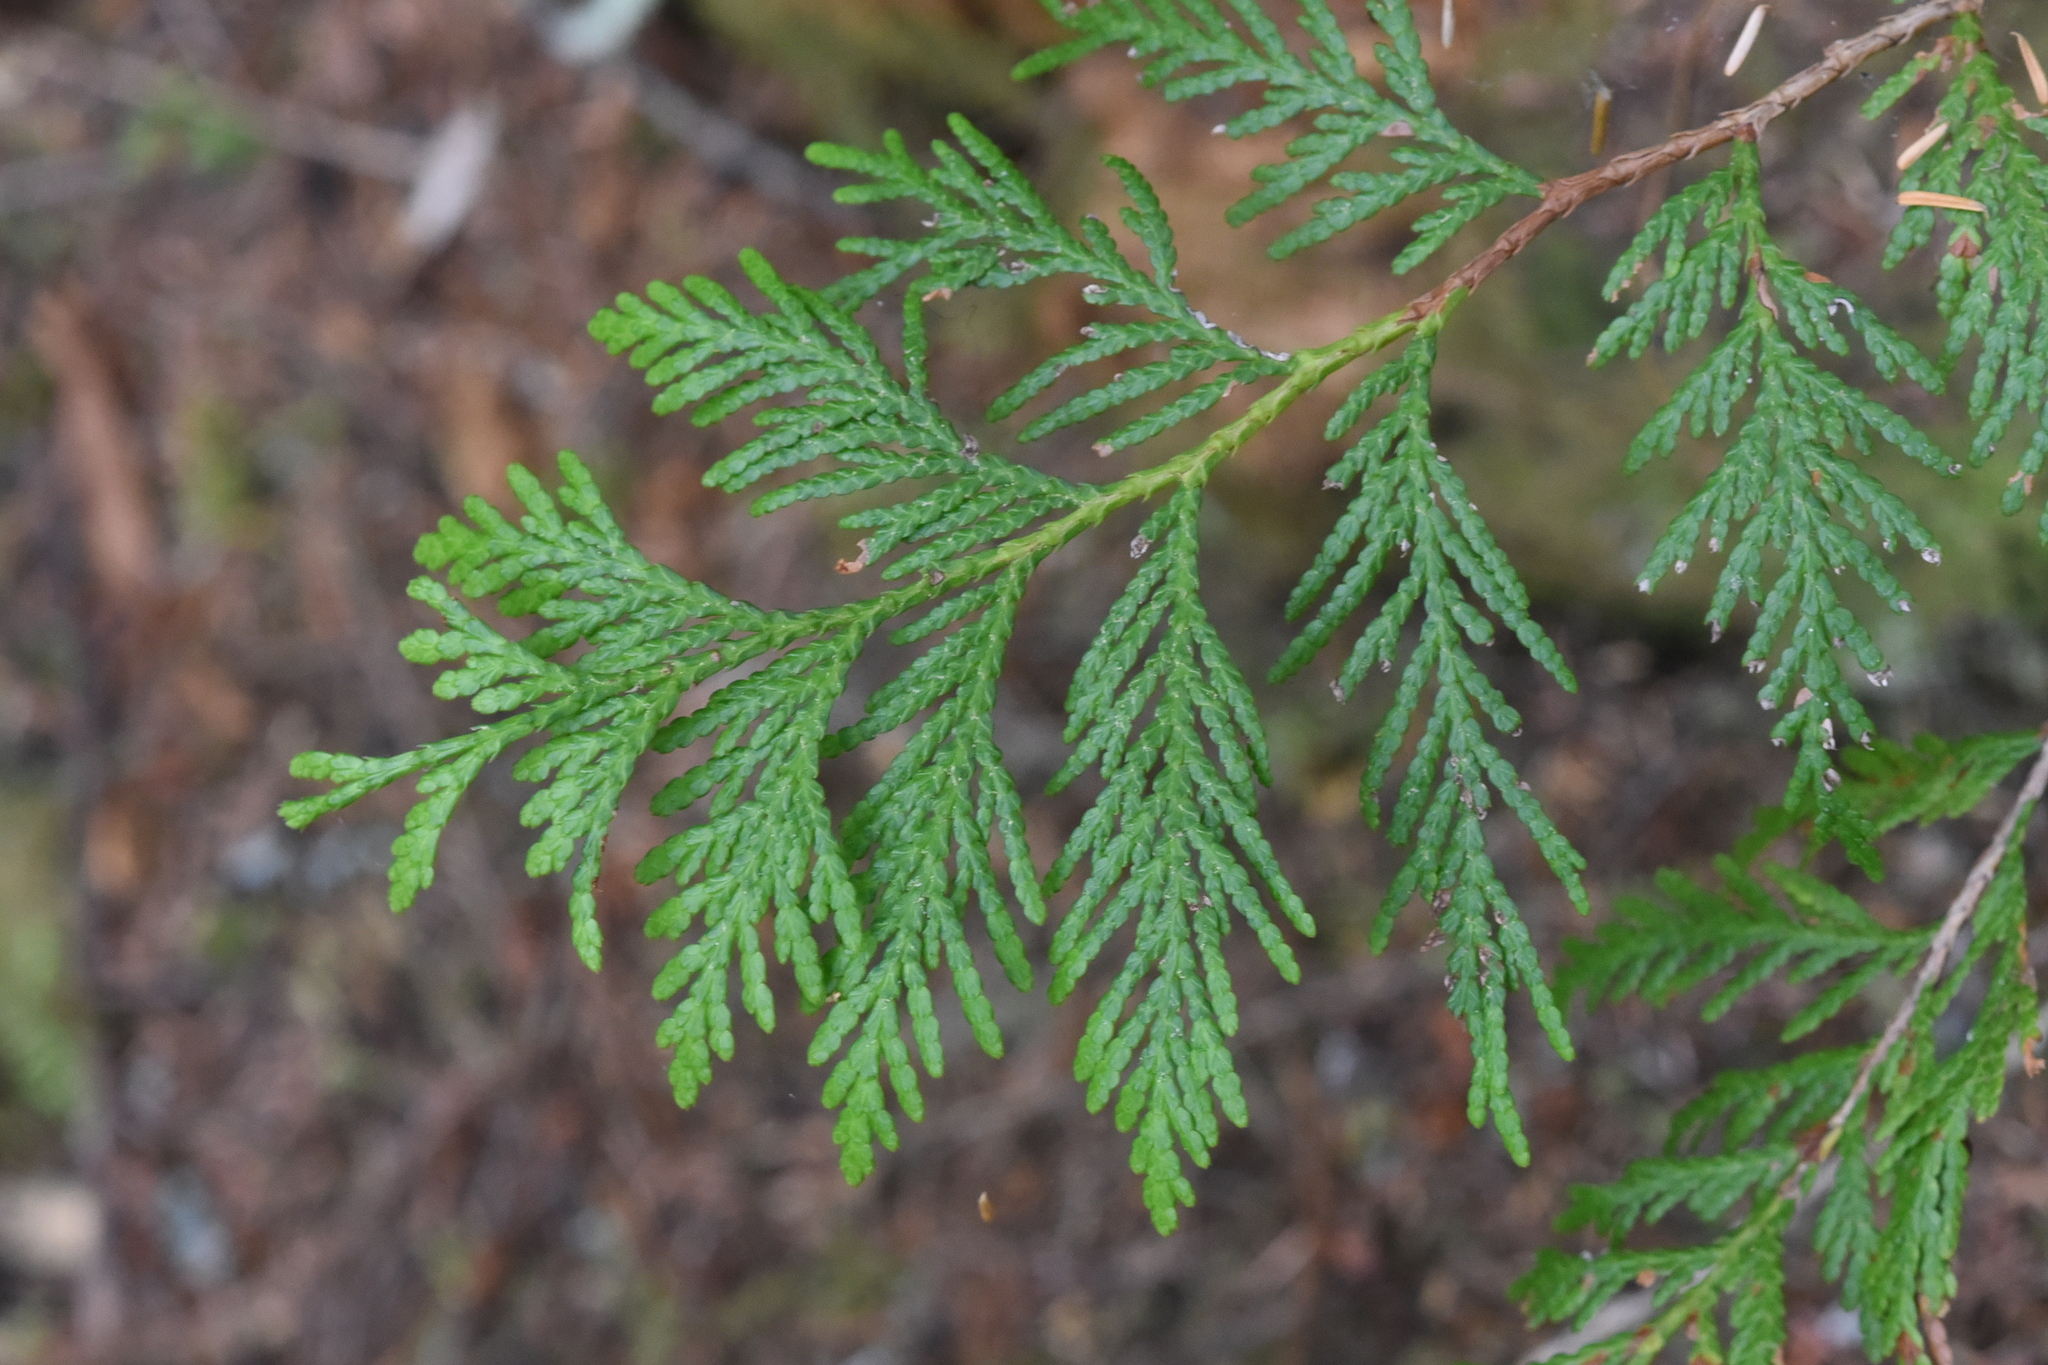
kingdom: Plantae
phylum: Tracheophyta
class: Pinopsida
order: Pinales
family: Cupressaceae
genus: Thuja
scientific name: Thuja plicata
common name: Western red-cedar
